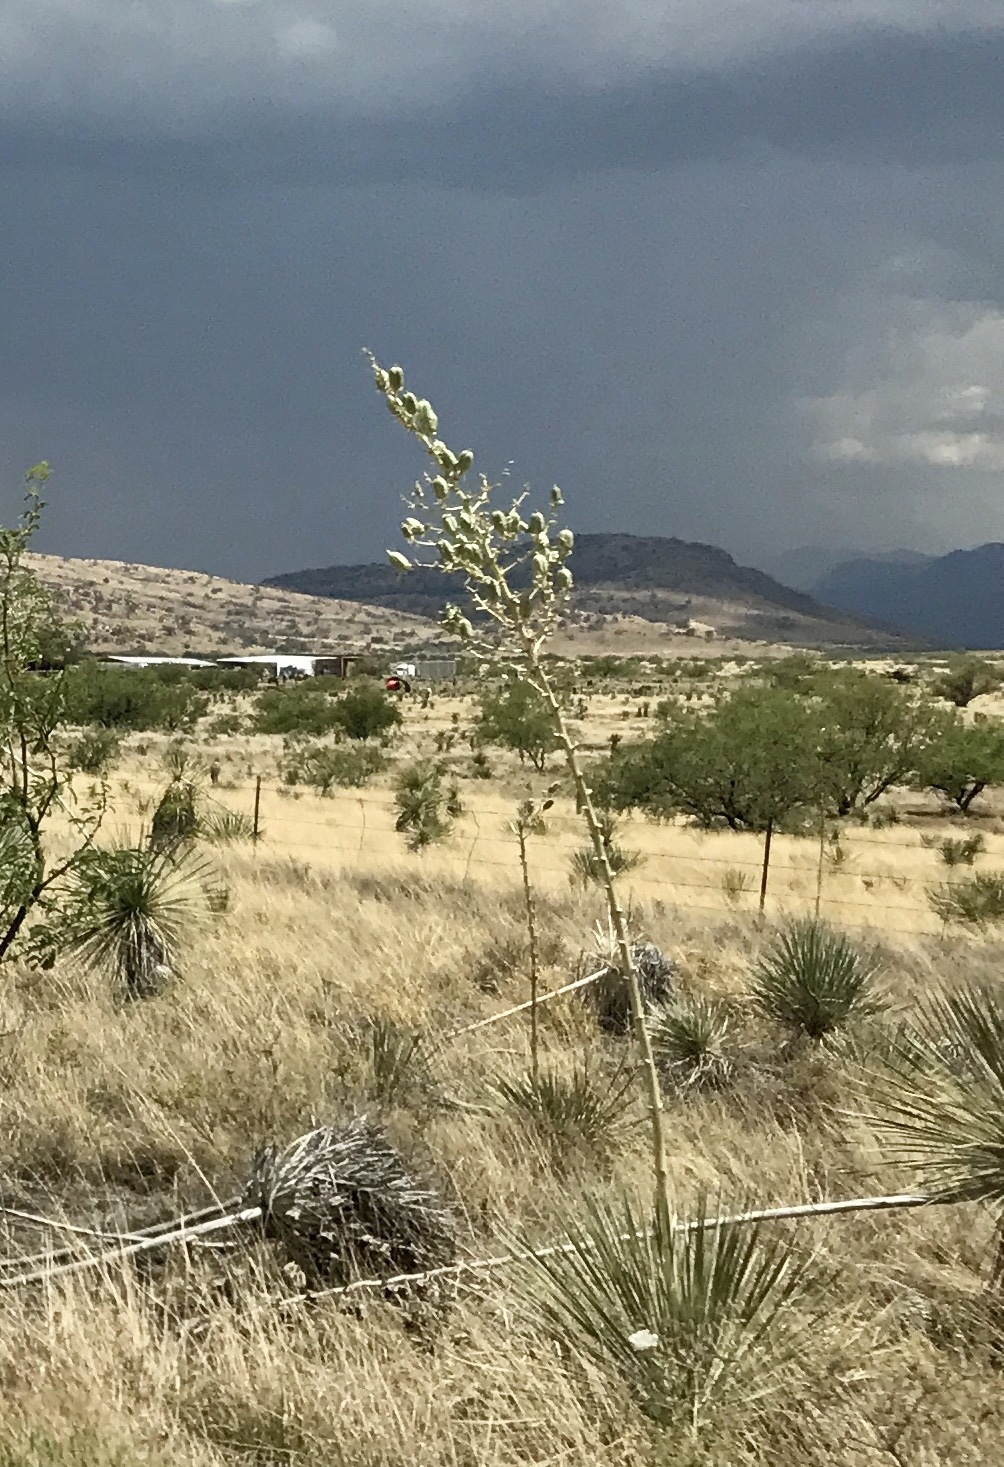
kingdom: Plantae
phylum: Tracheophyta
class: Liliopsida
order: Asparagales
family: Asparagaceae
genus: Yucca
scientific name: Yucca elata
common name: Palmella
